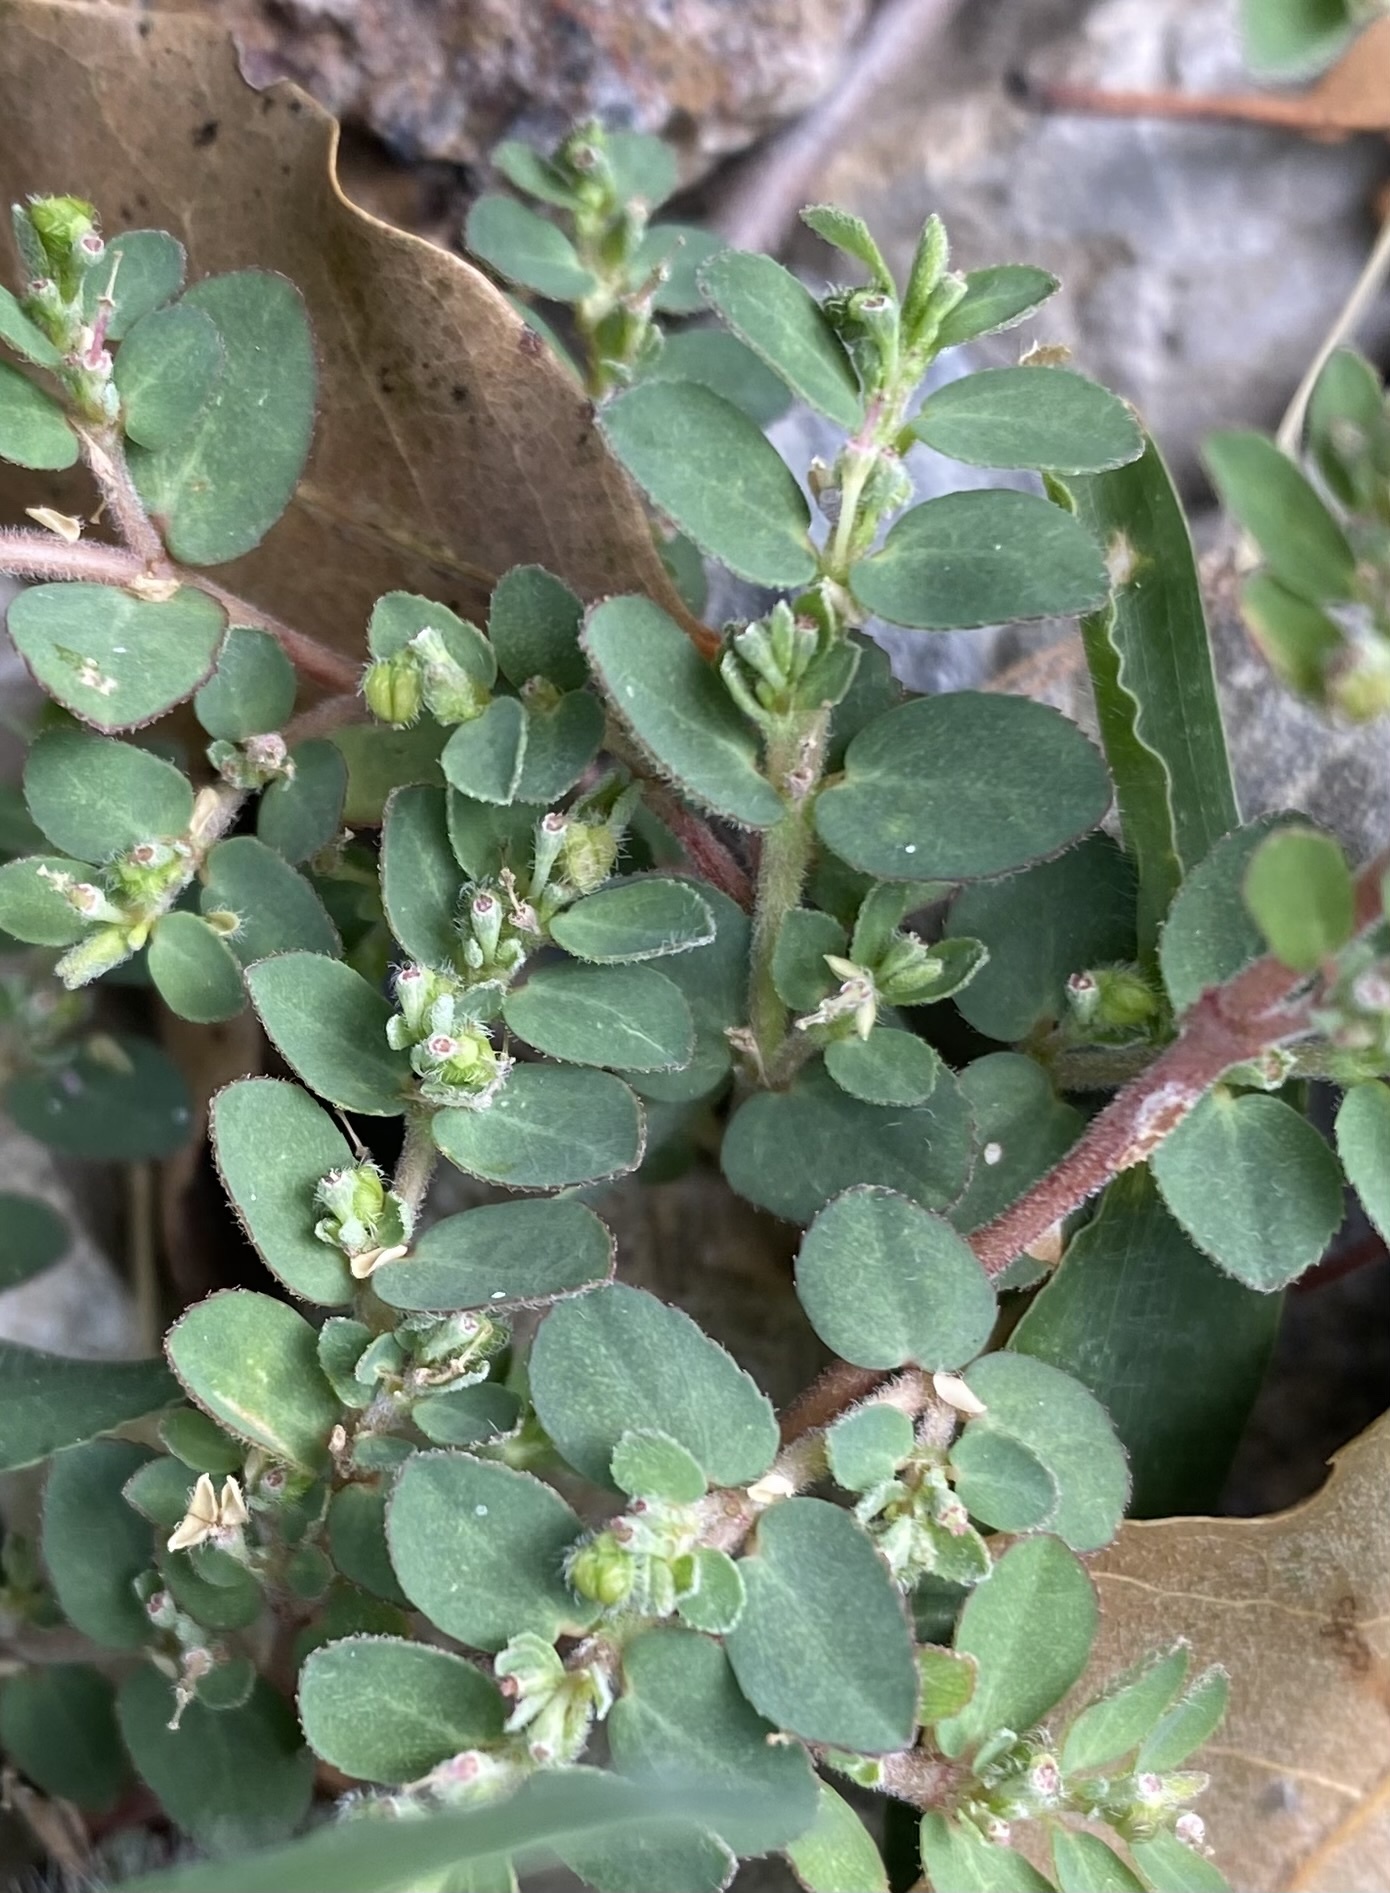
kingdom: Plantae
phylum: Tracheophyta
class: Magnoliopsida
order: Malpighiales
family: Euphorbiaceae
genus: Euphorbia
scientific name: Euphorbia prostrata
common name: Prostrate sandmat
